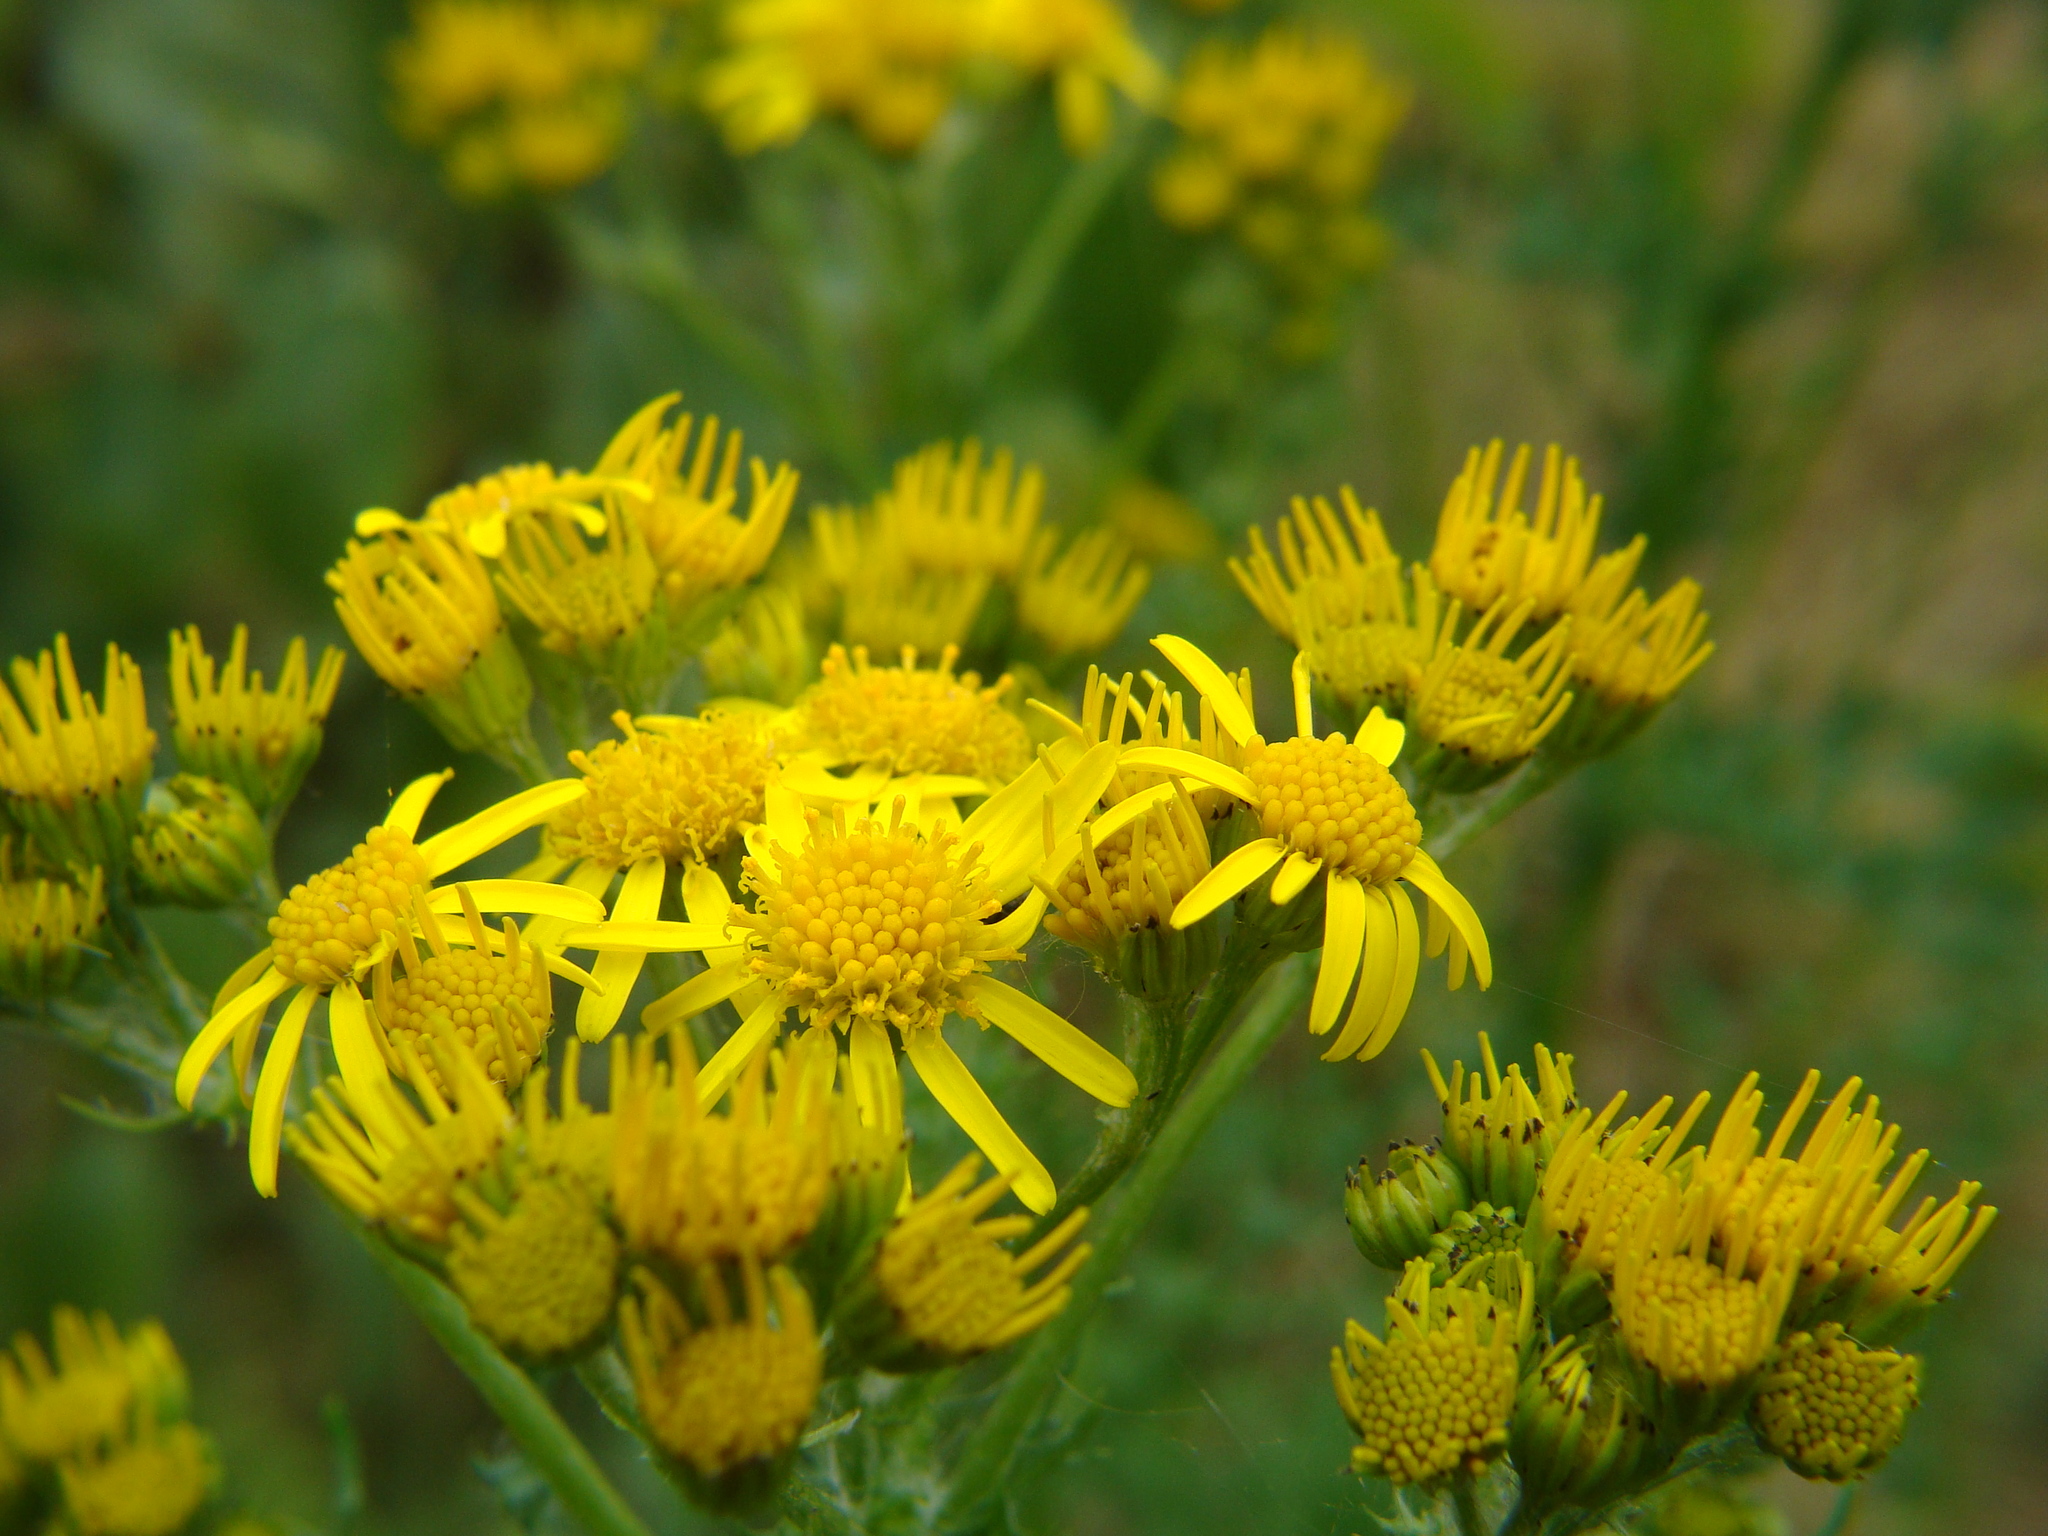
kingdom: Plantae
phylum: Tracheophyta
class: Magnoliopsida
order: Asterales
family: Asteraceae
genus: Jacobaea
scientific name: Jacobaea vulgaris
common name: Stinking willie
